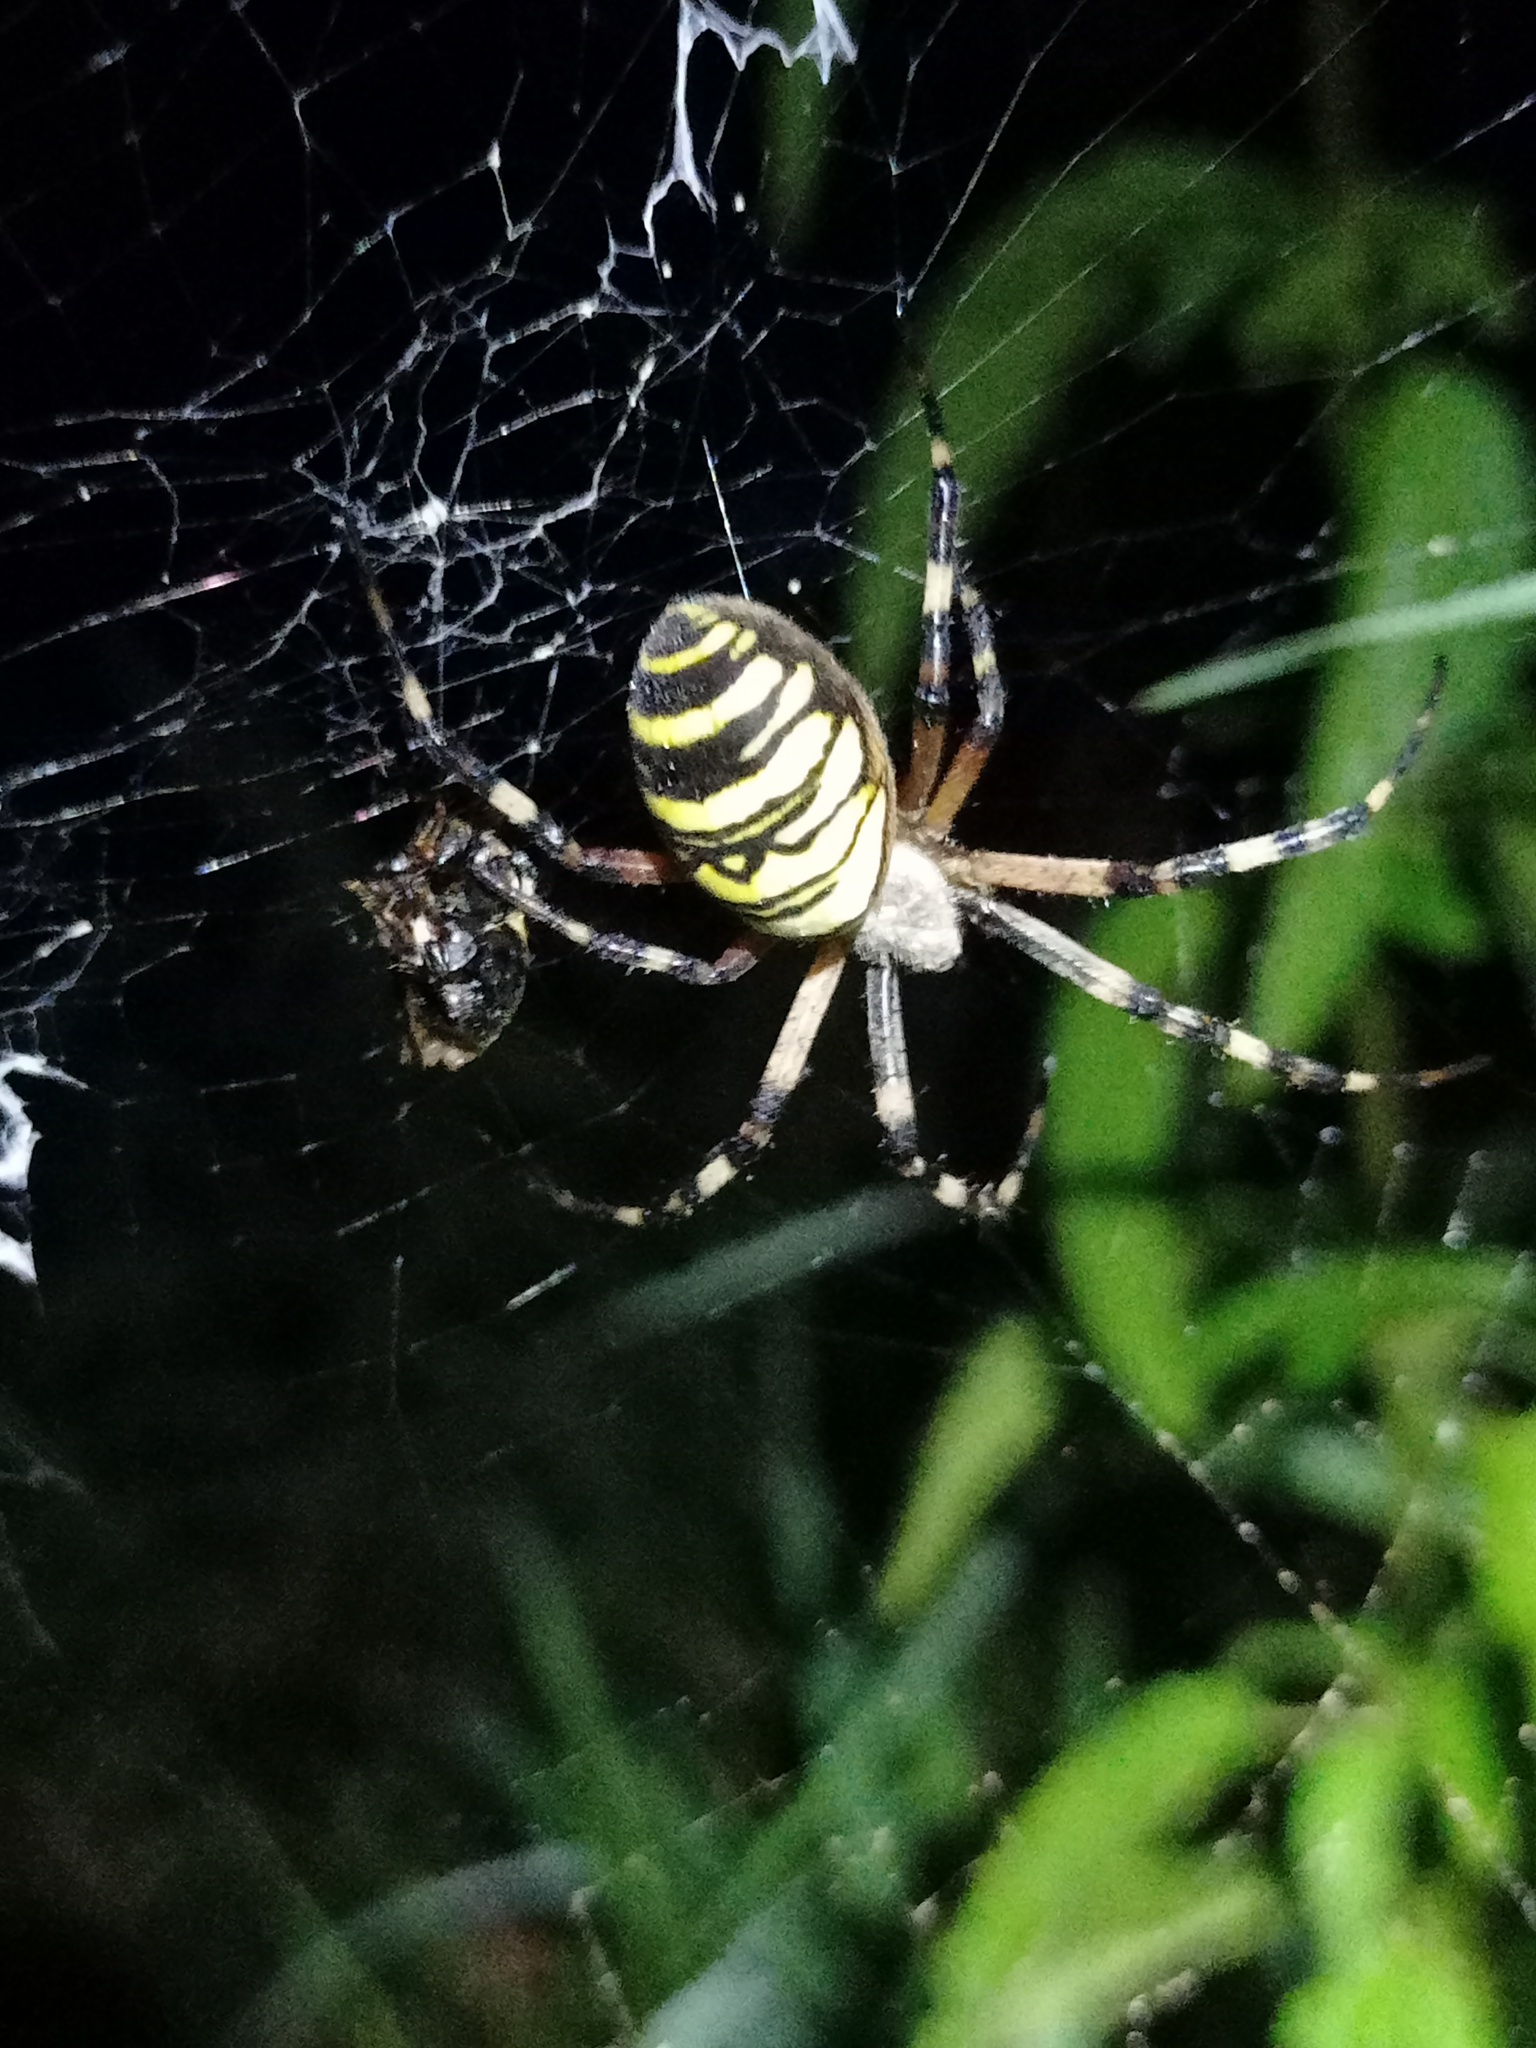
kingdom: Animalia
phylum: Arthropoda
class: Arachnida
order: Araneae
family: Araneidae
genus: Argiope
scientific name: Argiope bruennichi
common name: Wasp spider
